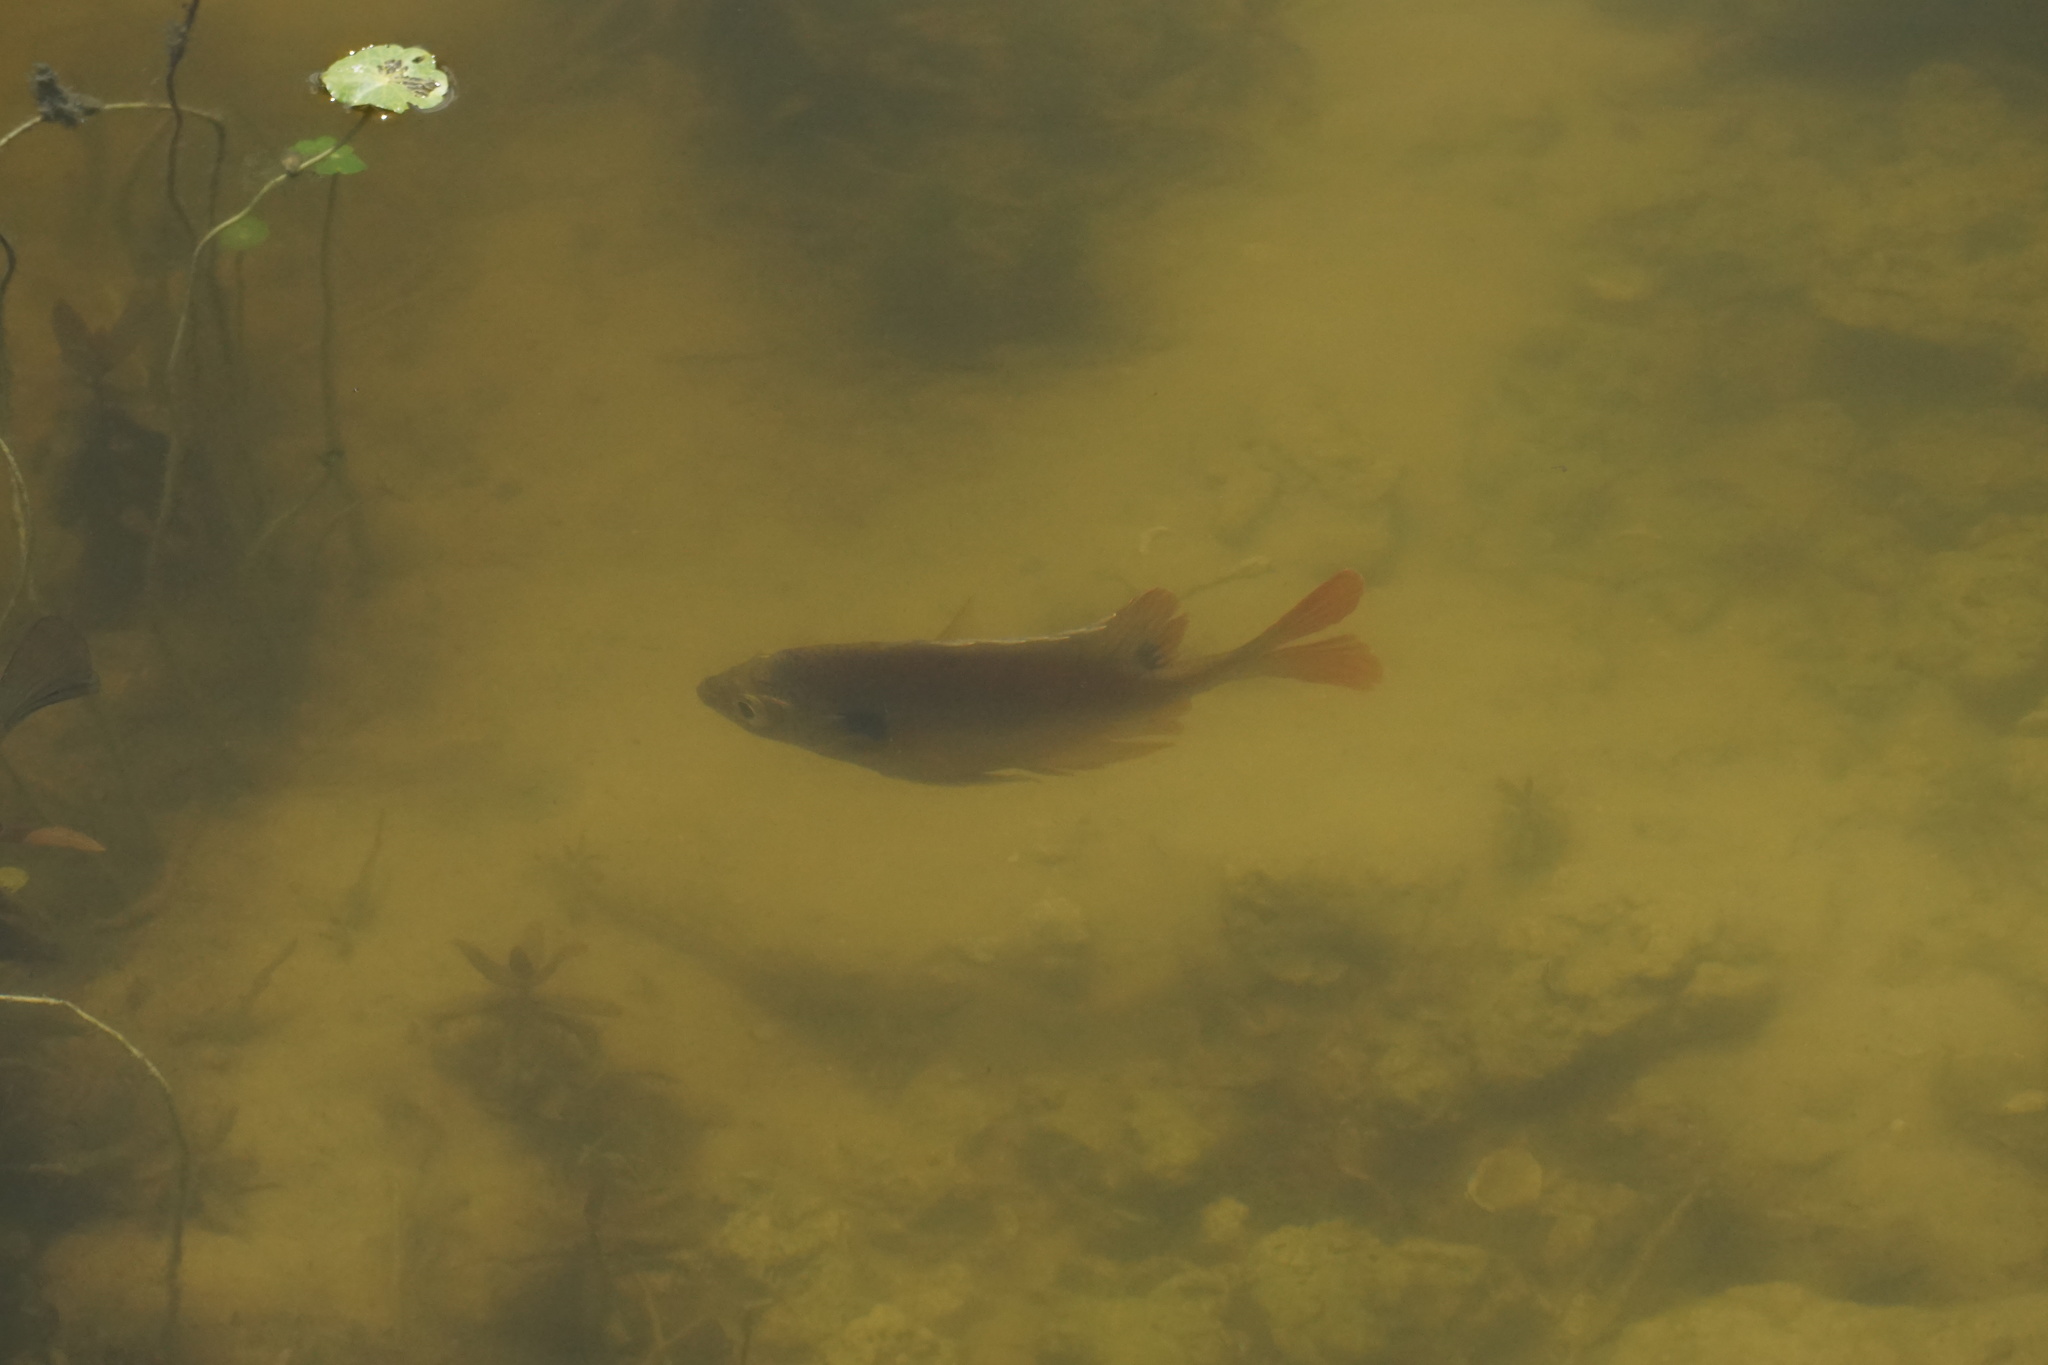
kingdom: Animalia
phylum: Chordata
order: Perciformes
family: Centrarchidae
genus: Lepomis
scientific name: Lepomis macrochirus
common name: Bluegill
